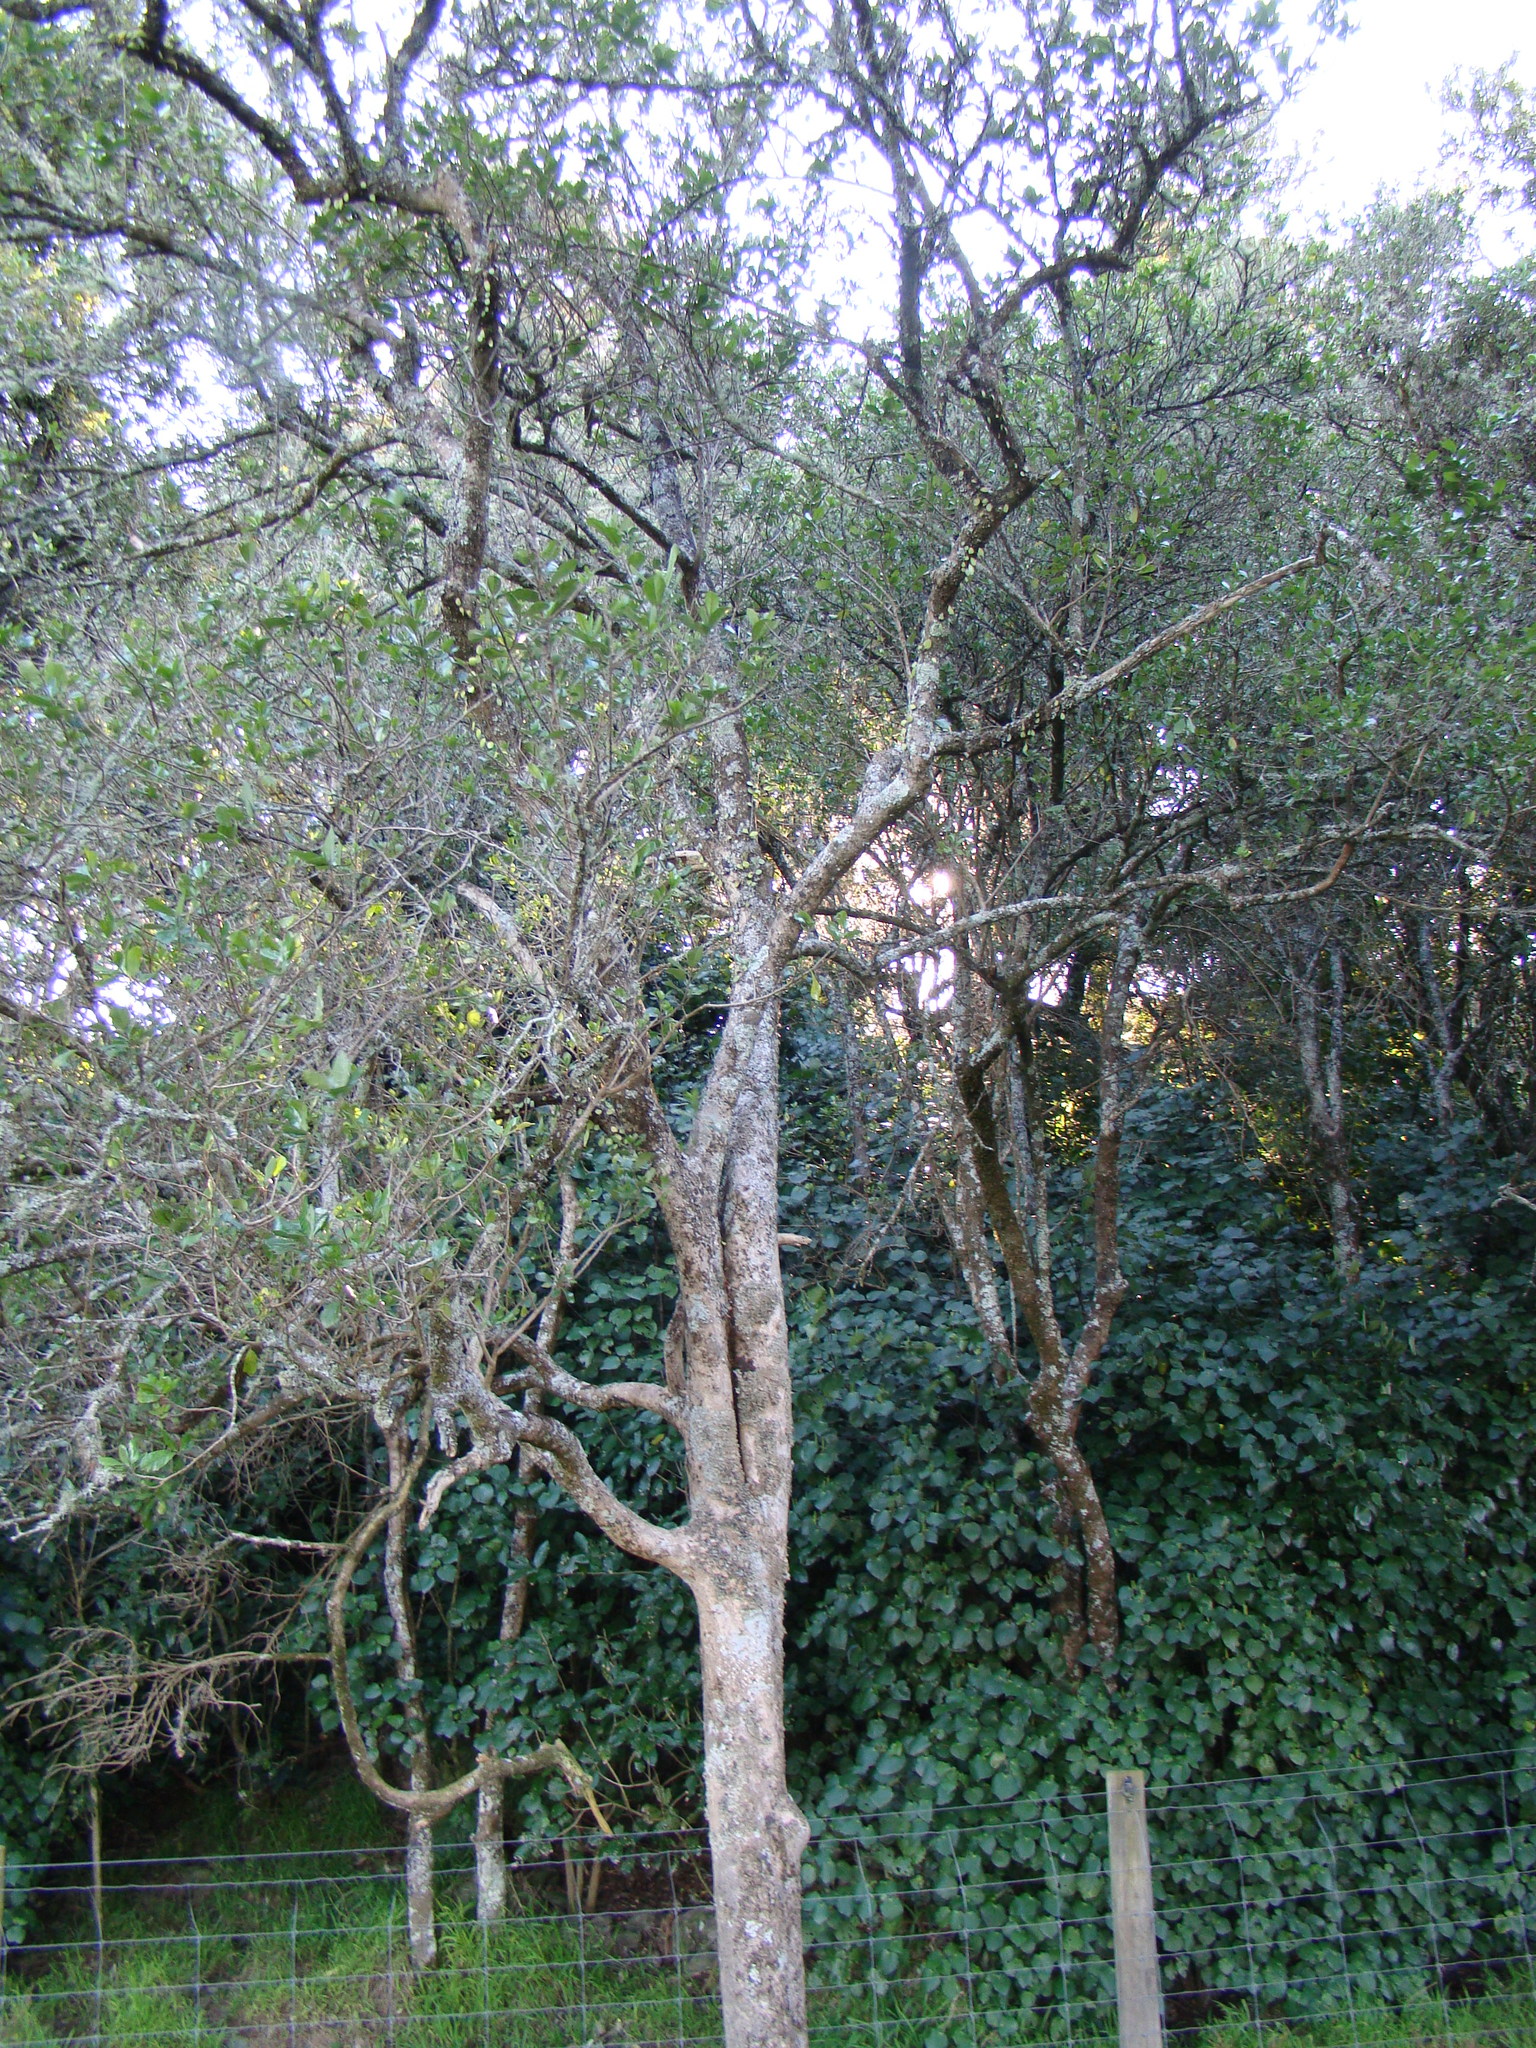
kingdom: Plantae
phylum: Tracheophyta
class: Magnoliopsida
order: Apiales
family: Pennantiaceae
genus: Pennantia
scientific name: Pennantia corymbosa
